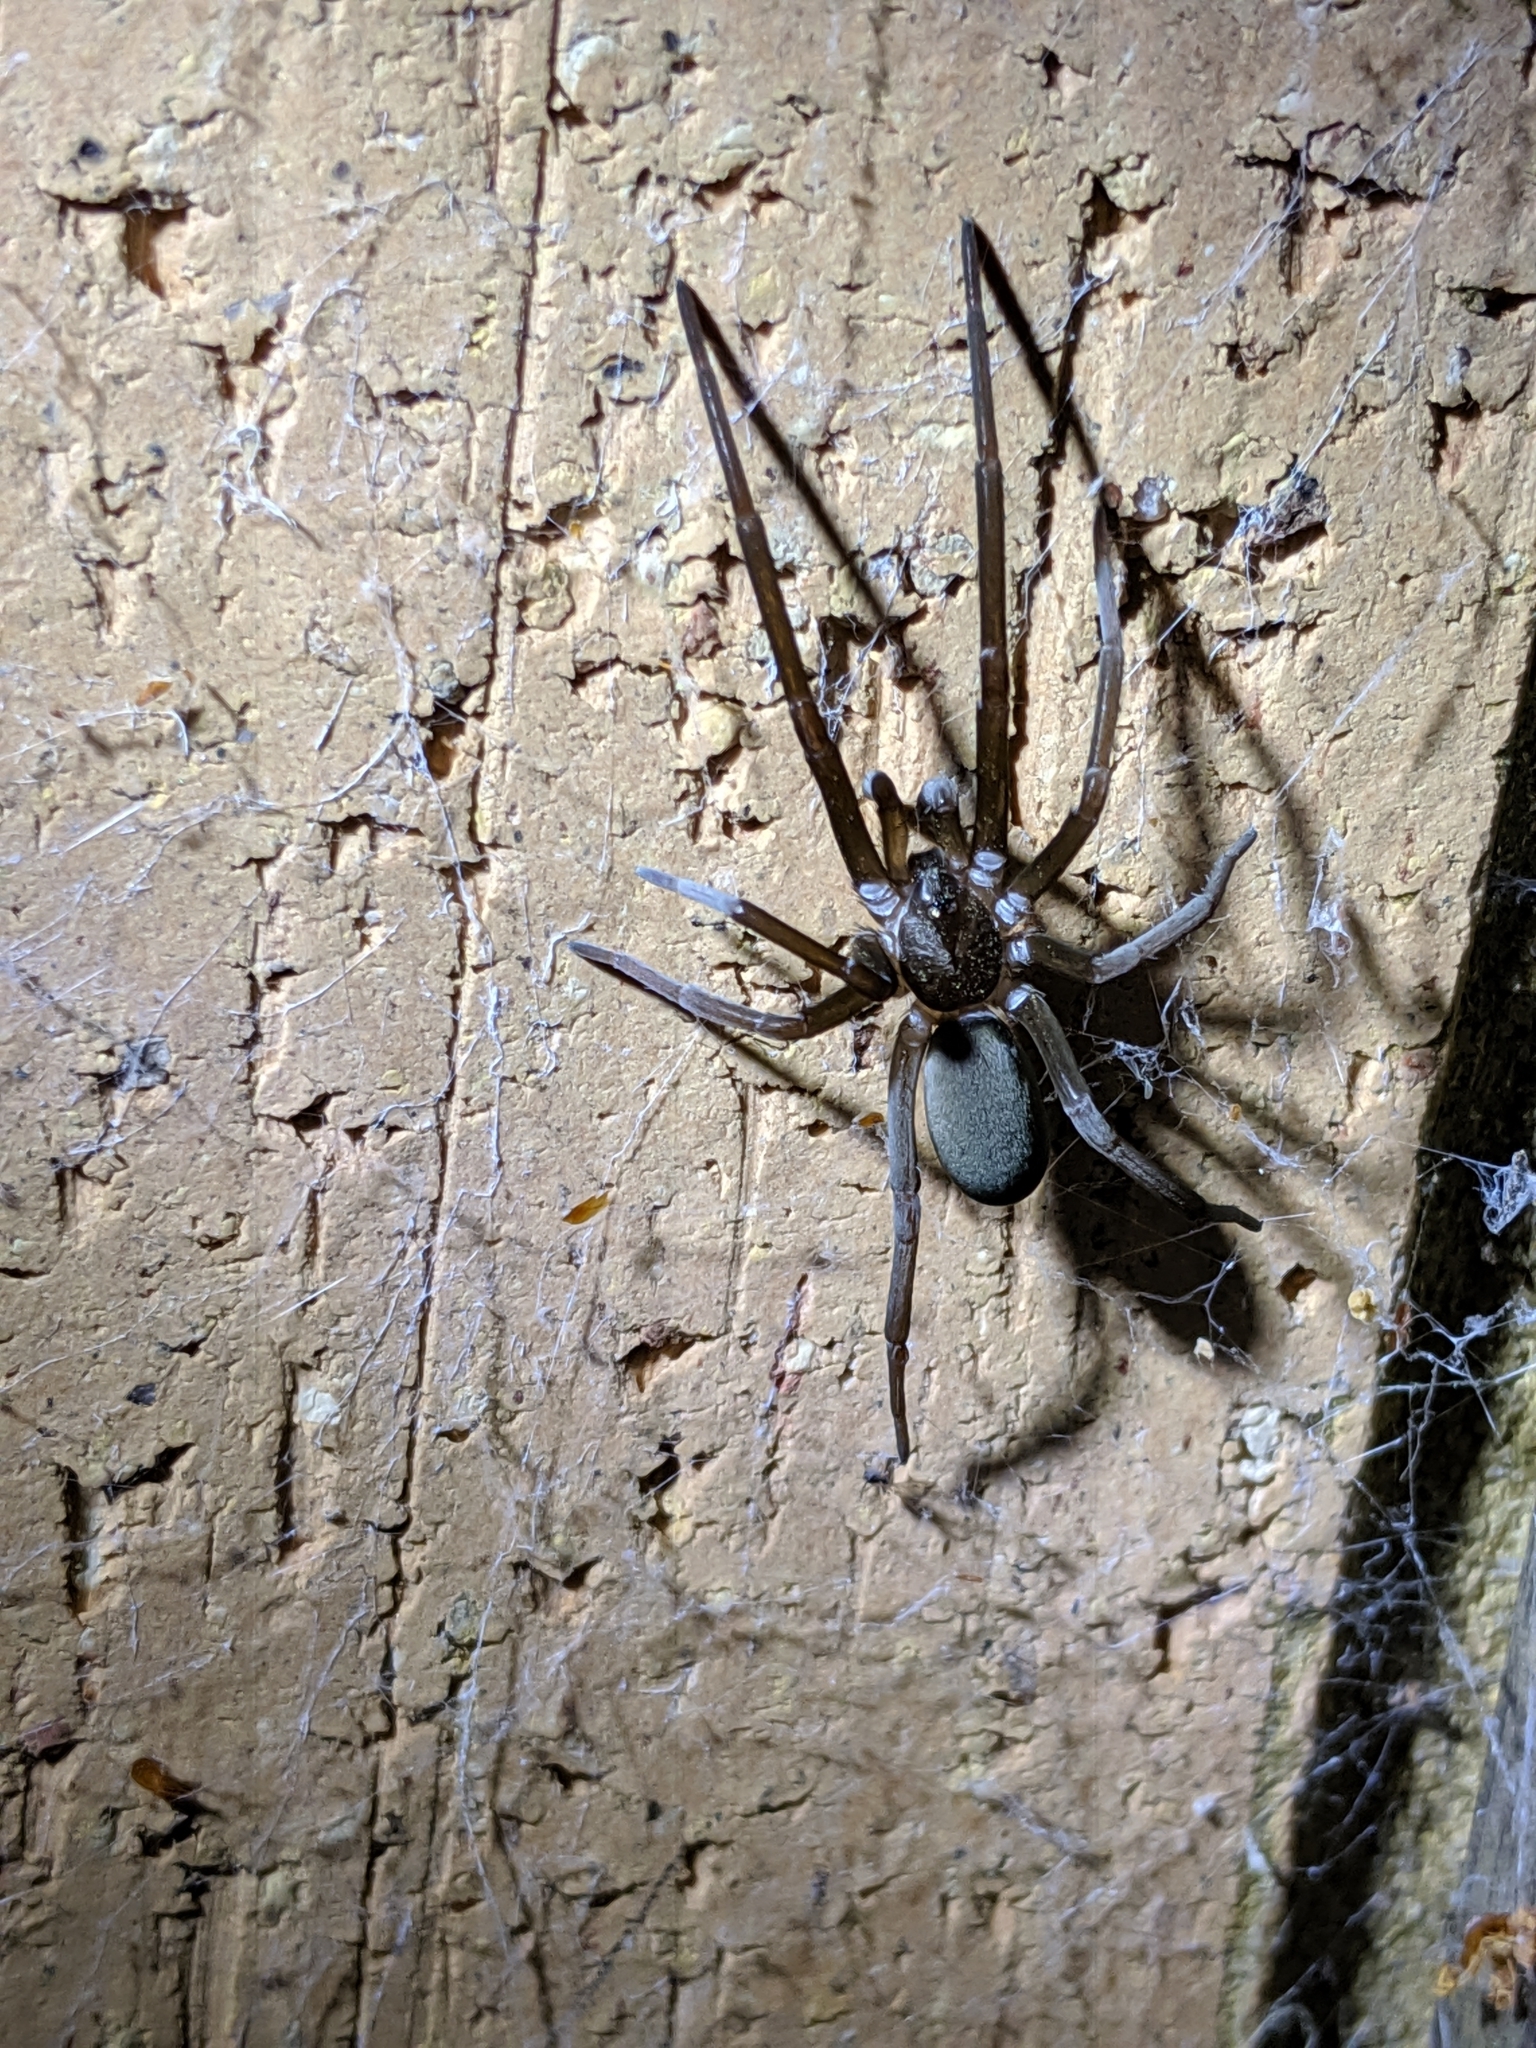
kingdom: Animalia
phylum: Arthropoda
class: Arachnida
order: Araneae
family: Filistatidae
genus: Kukulcania
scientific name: Kukulcania hibernalis
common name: Crevice weaver
